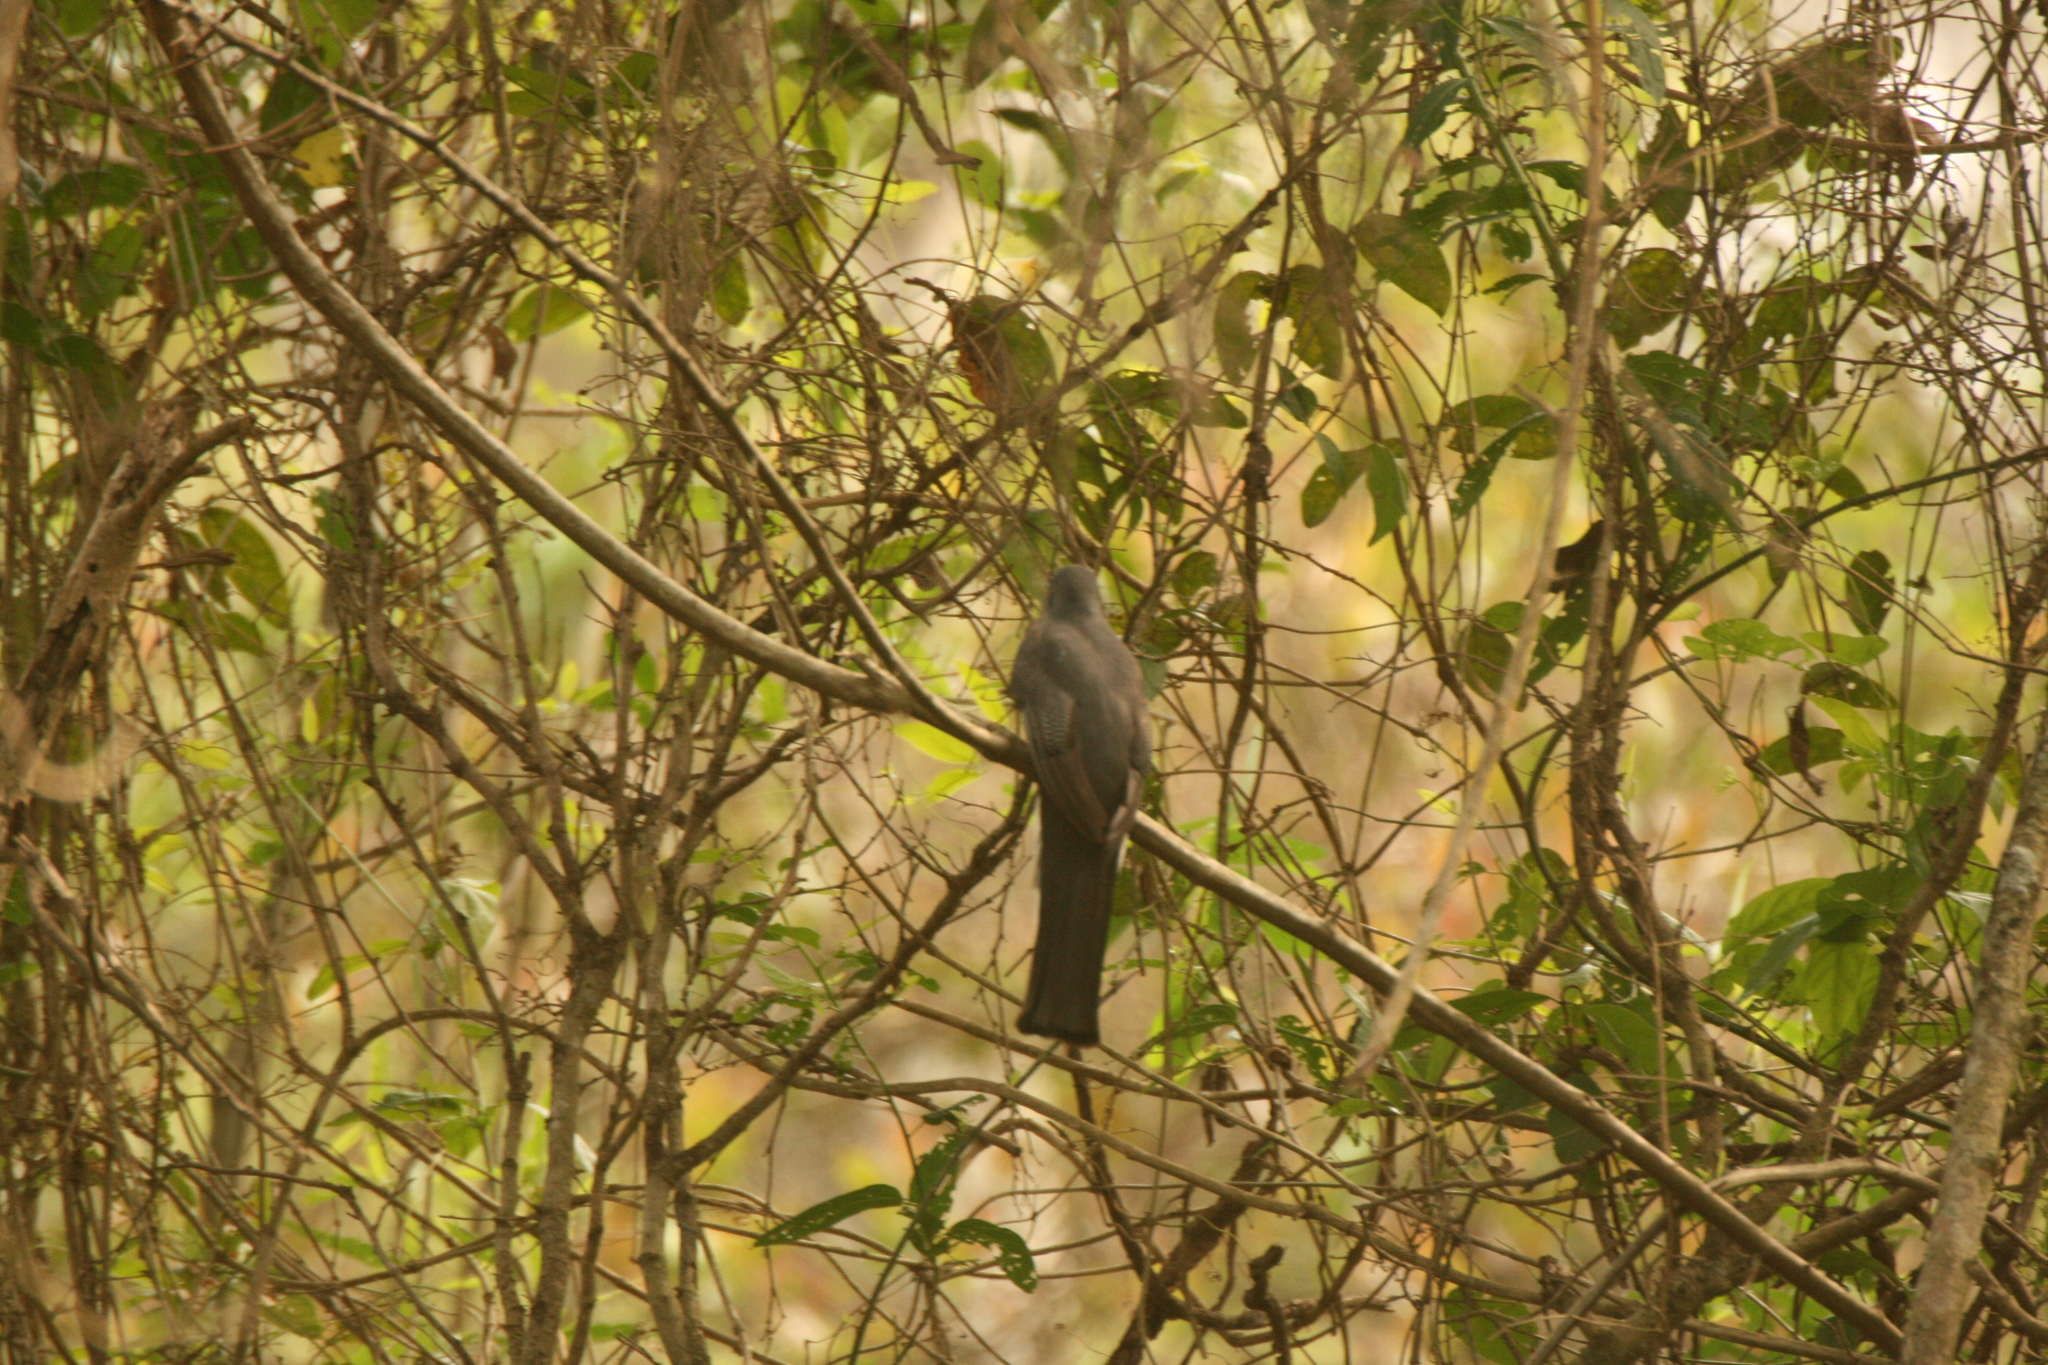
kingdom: Animalia
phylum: Chordata
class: Aves
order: Trogoniformes
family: Trogonidae
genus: Trogon
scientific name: Trogon surrucura
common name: Surucua trogon
